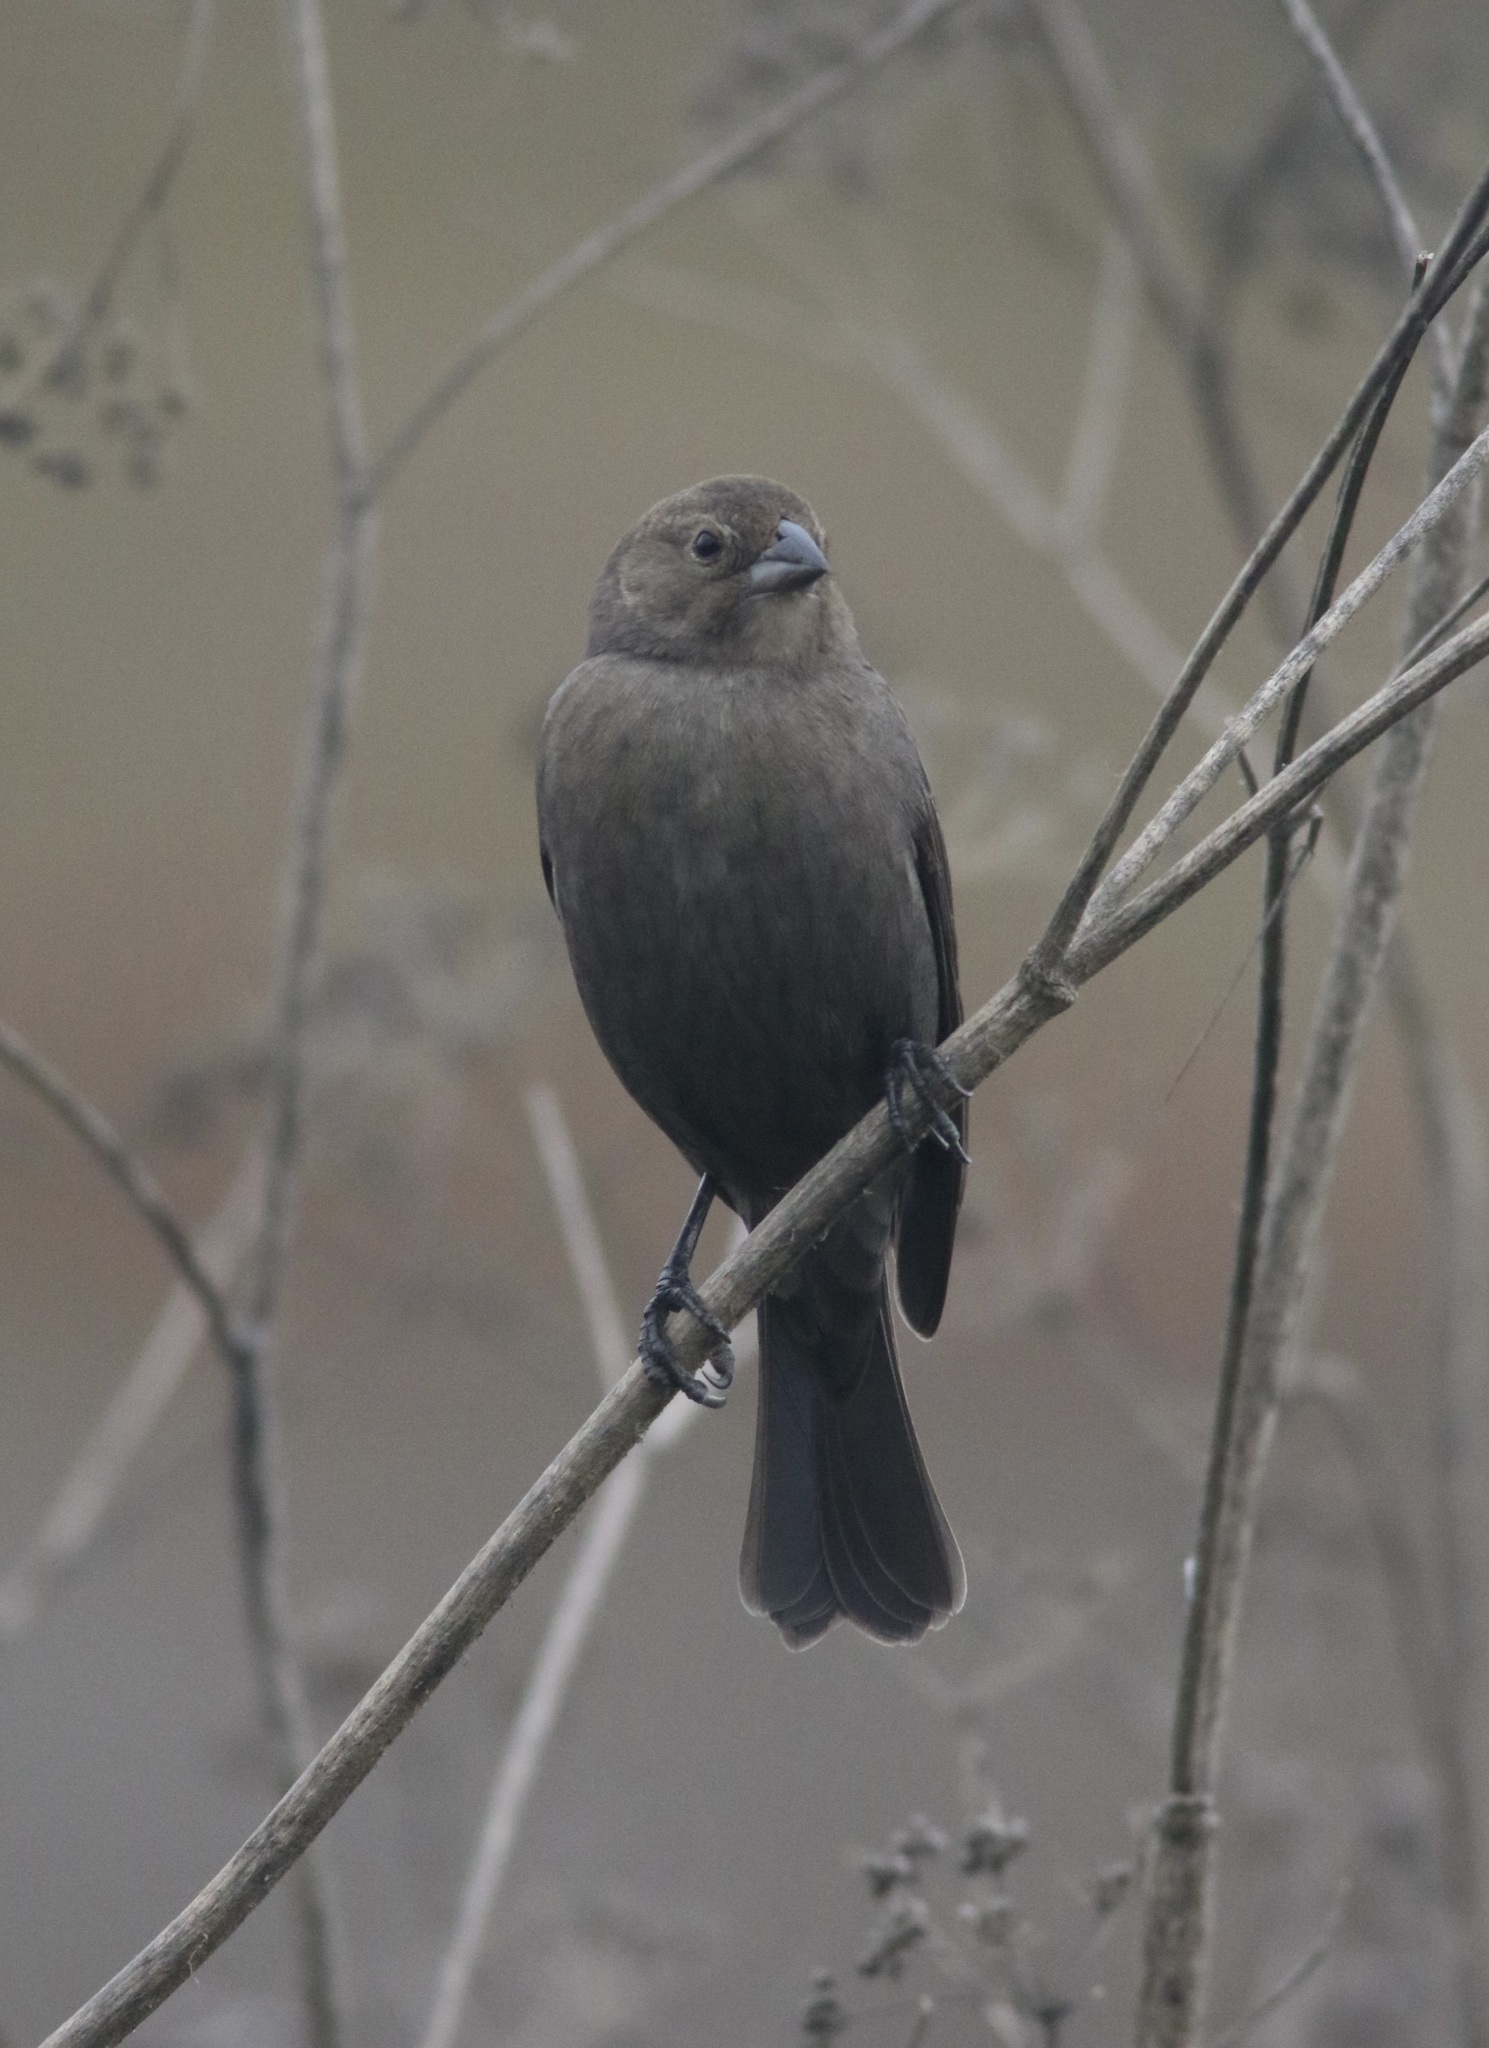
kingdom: Animalia
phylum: Chordata
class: Aves
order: Passeriformes
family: Icteridae
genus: Molothrus
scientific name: Molothrus ater
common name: Brown-headed cowbird
